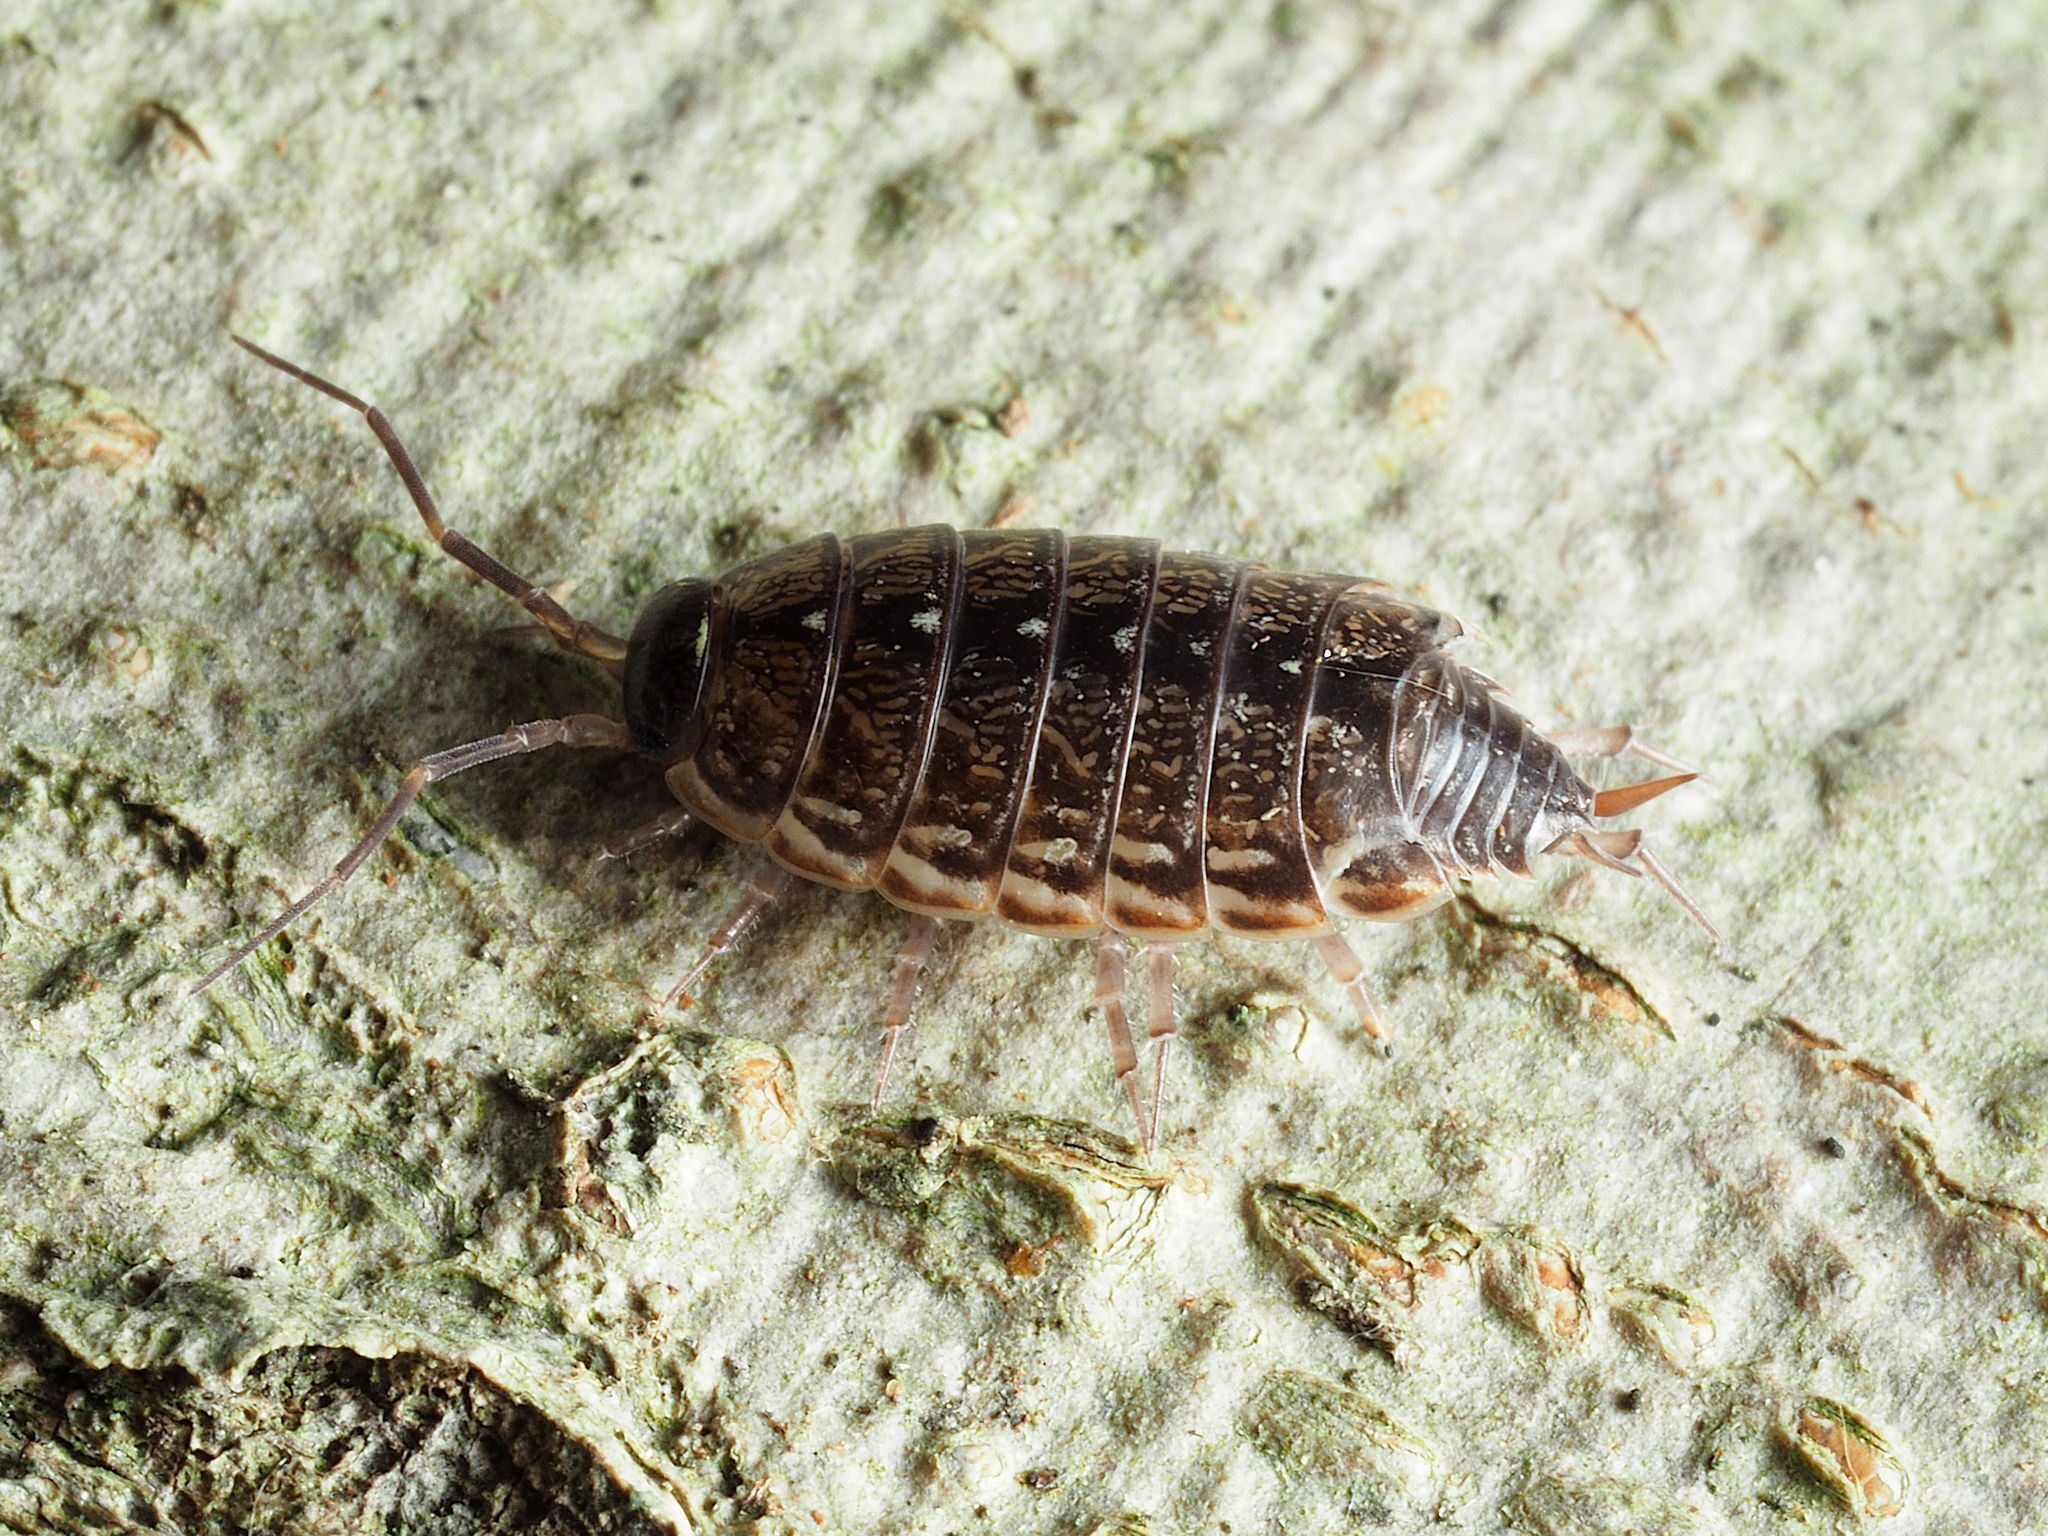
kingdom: Animalia
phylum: Arthropoda
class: Malacostraca
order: Isopoda
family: Philosciidae
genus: Philoscia
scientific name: Philoscia muscorum
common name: Common striped woodlouse
